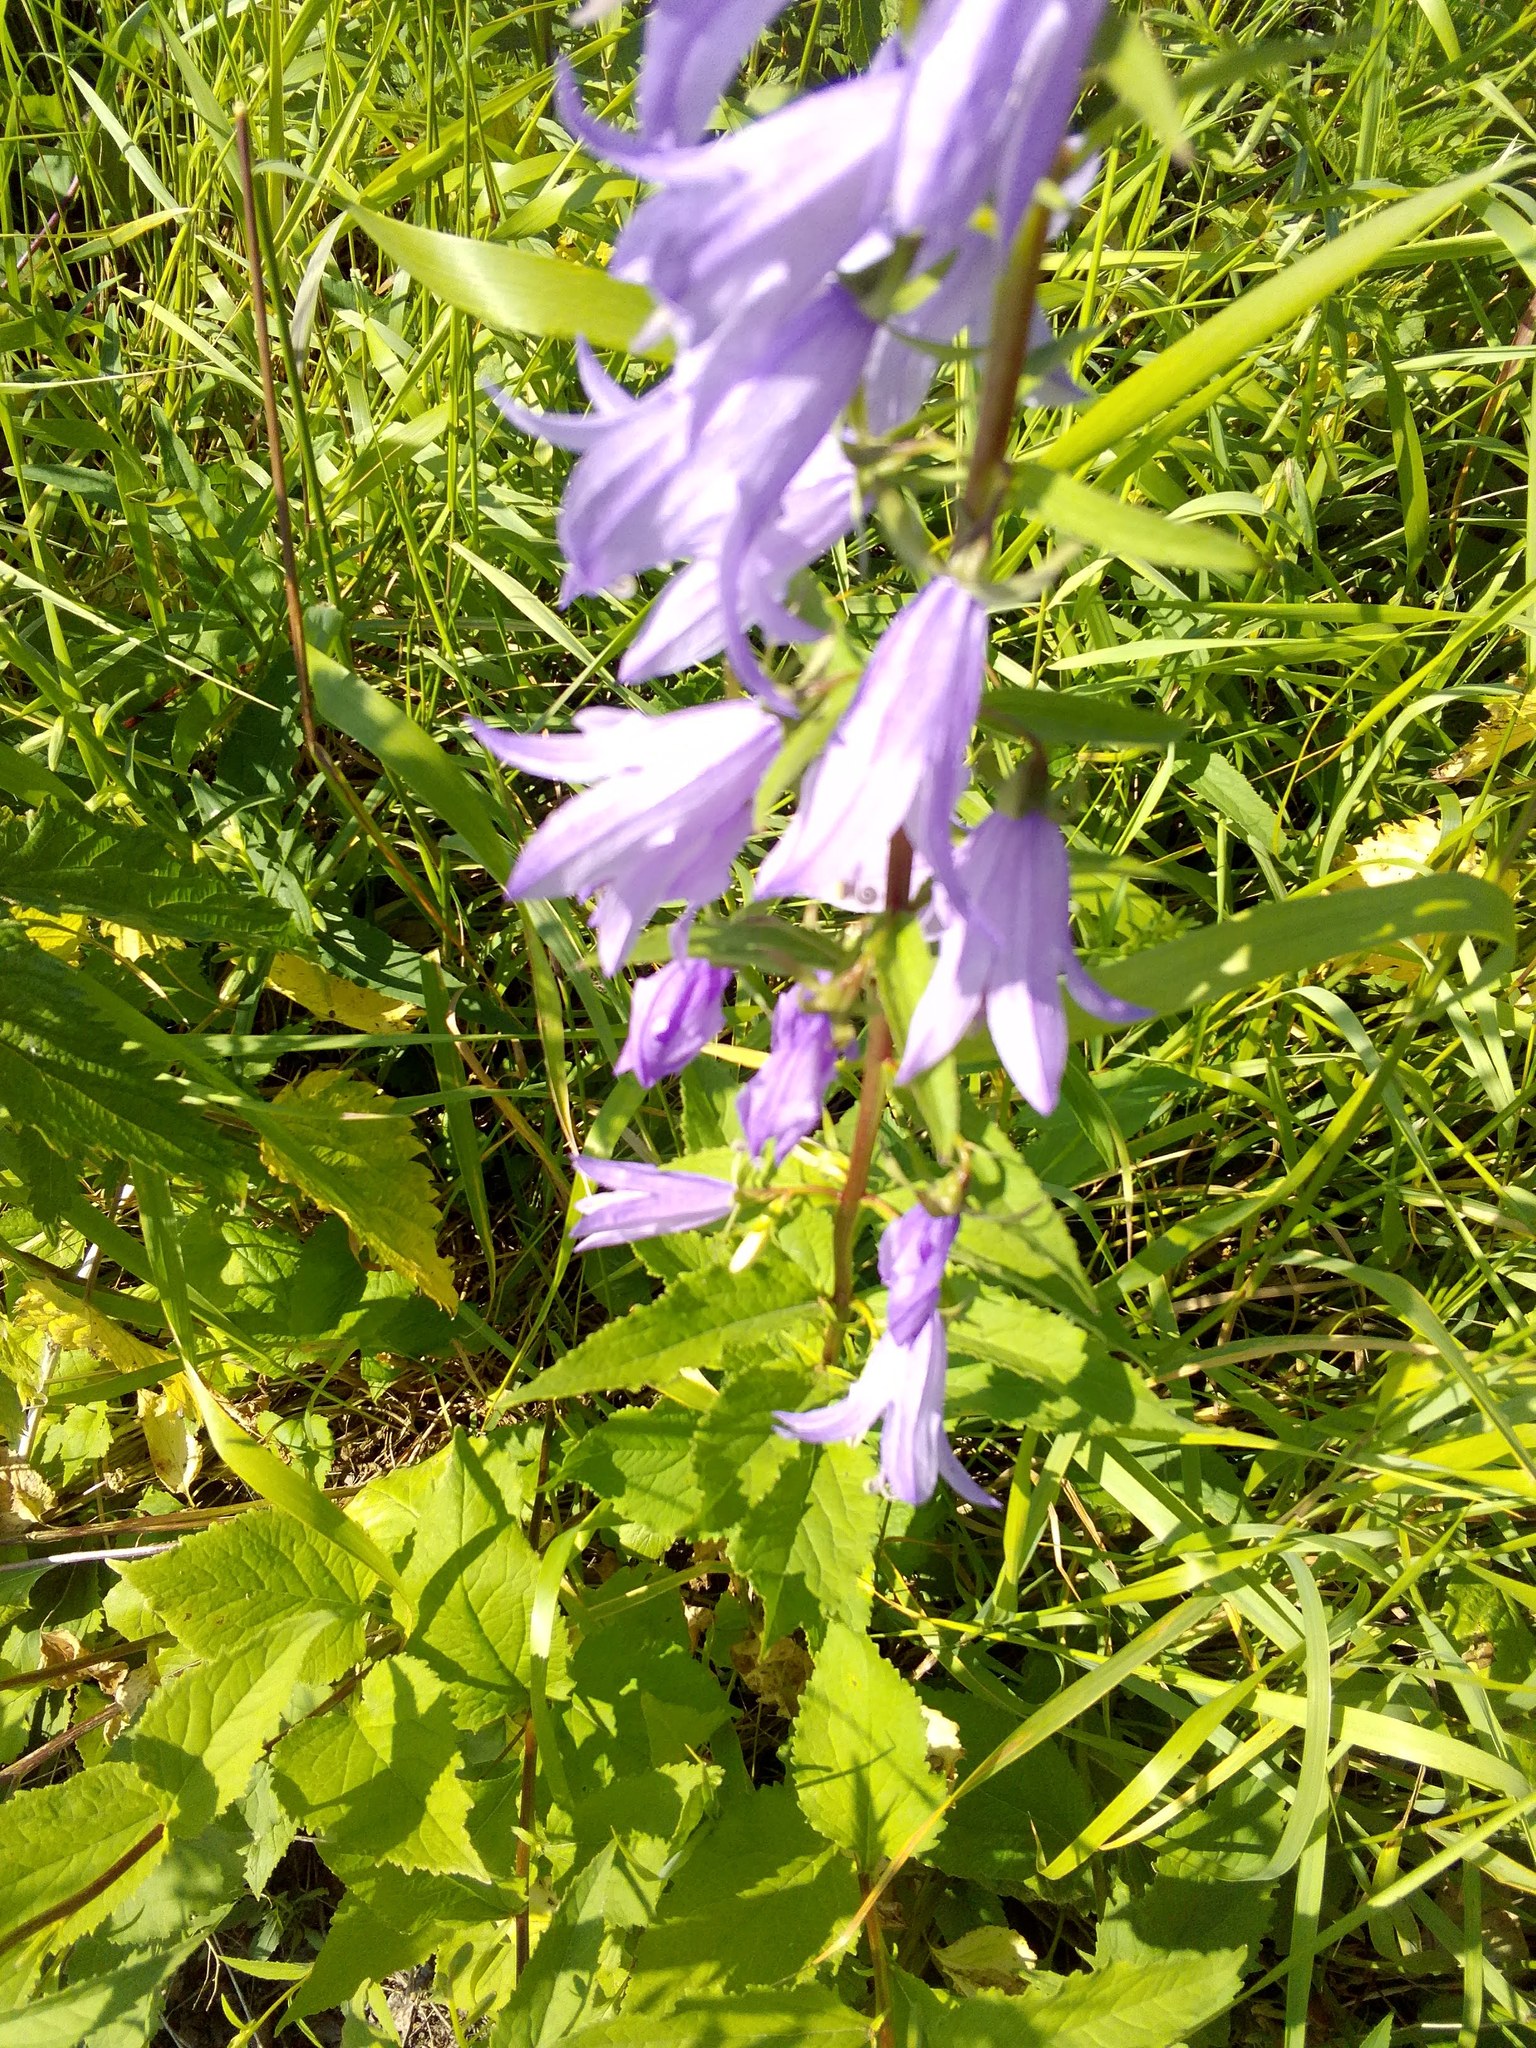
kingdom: Plantae
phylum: Tracheophyta
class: Magnoliopsida
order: Asterales
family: Campanulaceae
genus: Campanula
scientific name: Campanula rapunculoides
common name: Creeping bellflower
